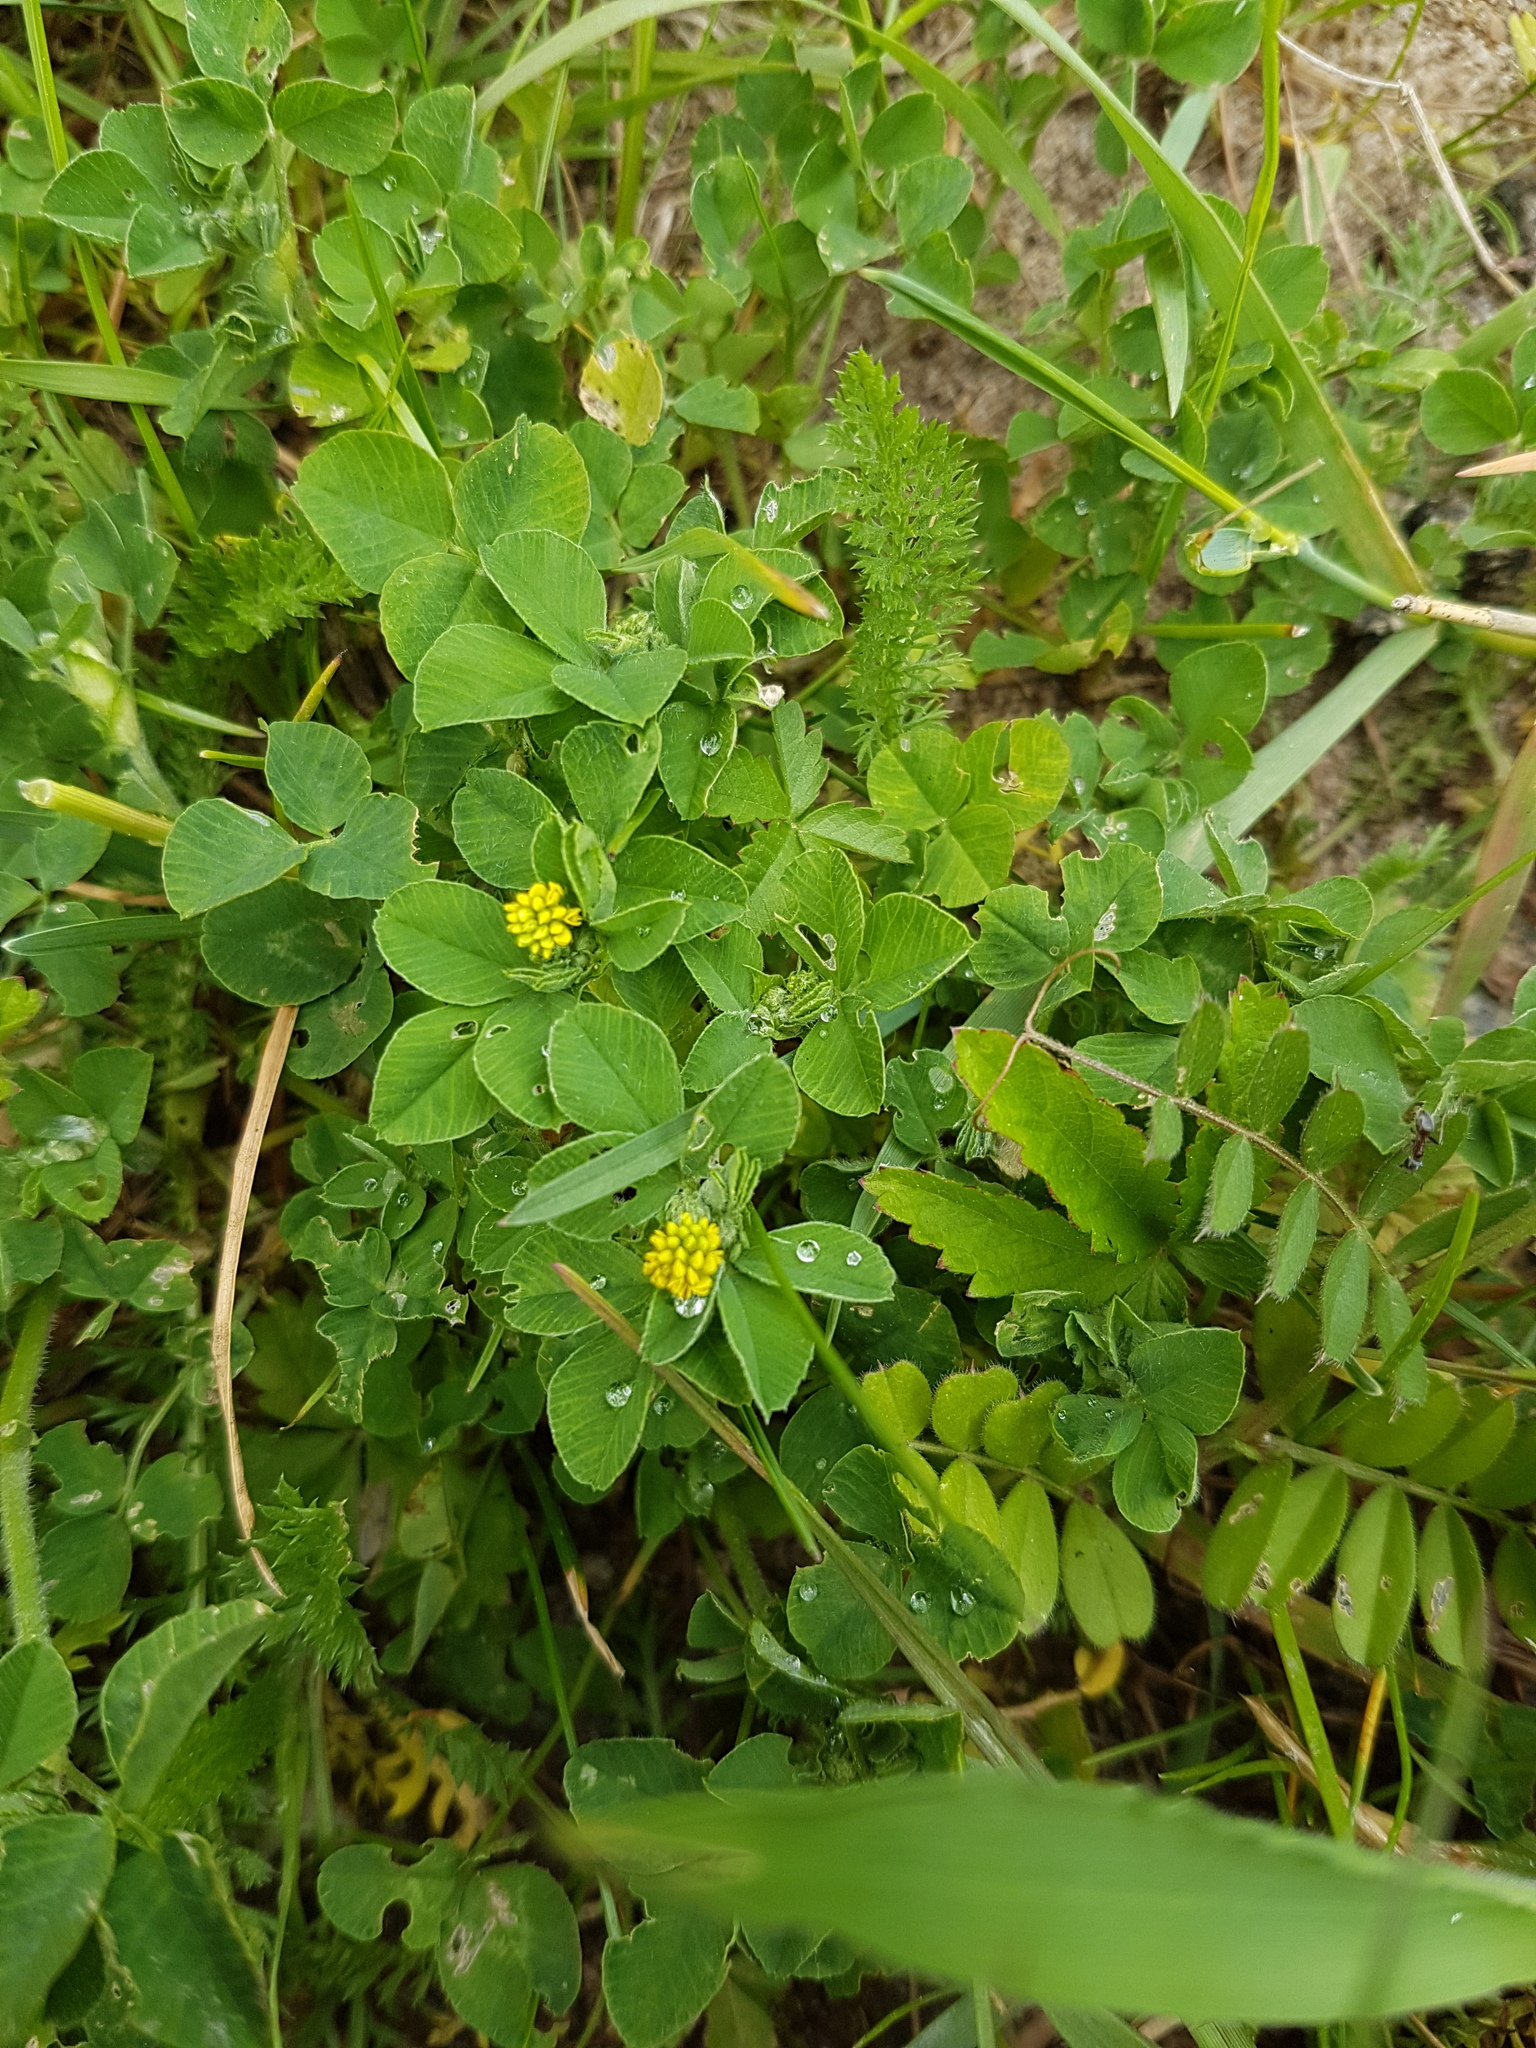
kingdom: Plantae
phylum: Tracheophyta
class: Magnoliopsida
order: Fabales
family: Fabaceae
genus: Medicago
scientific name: Medicago lupulina
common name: Black medick
